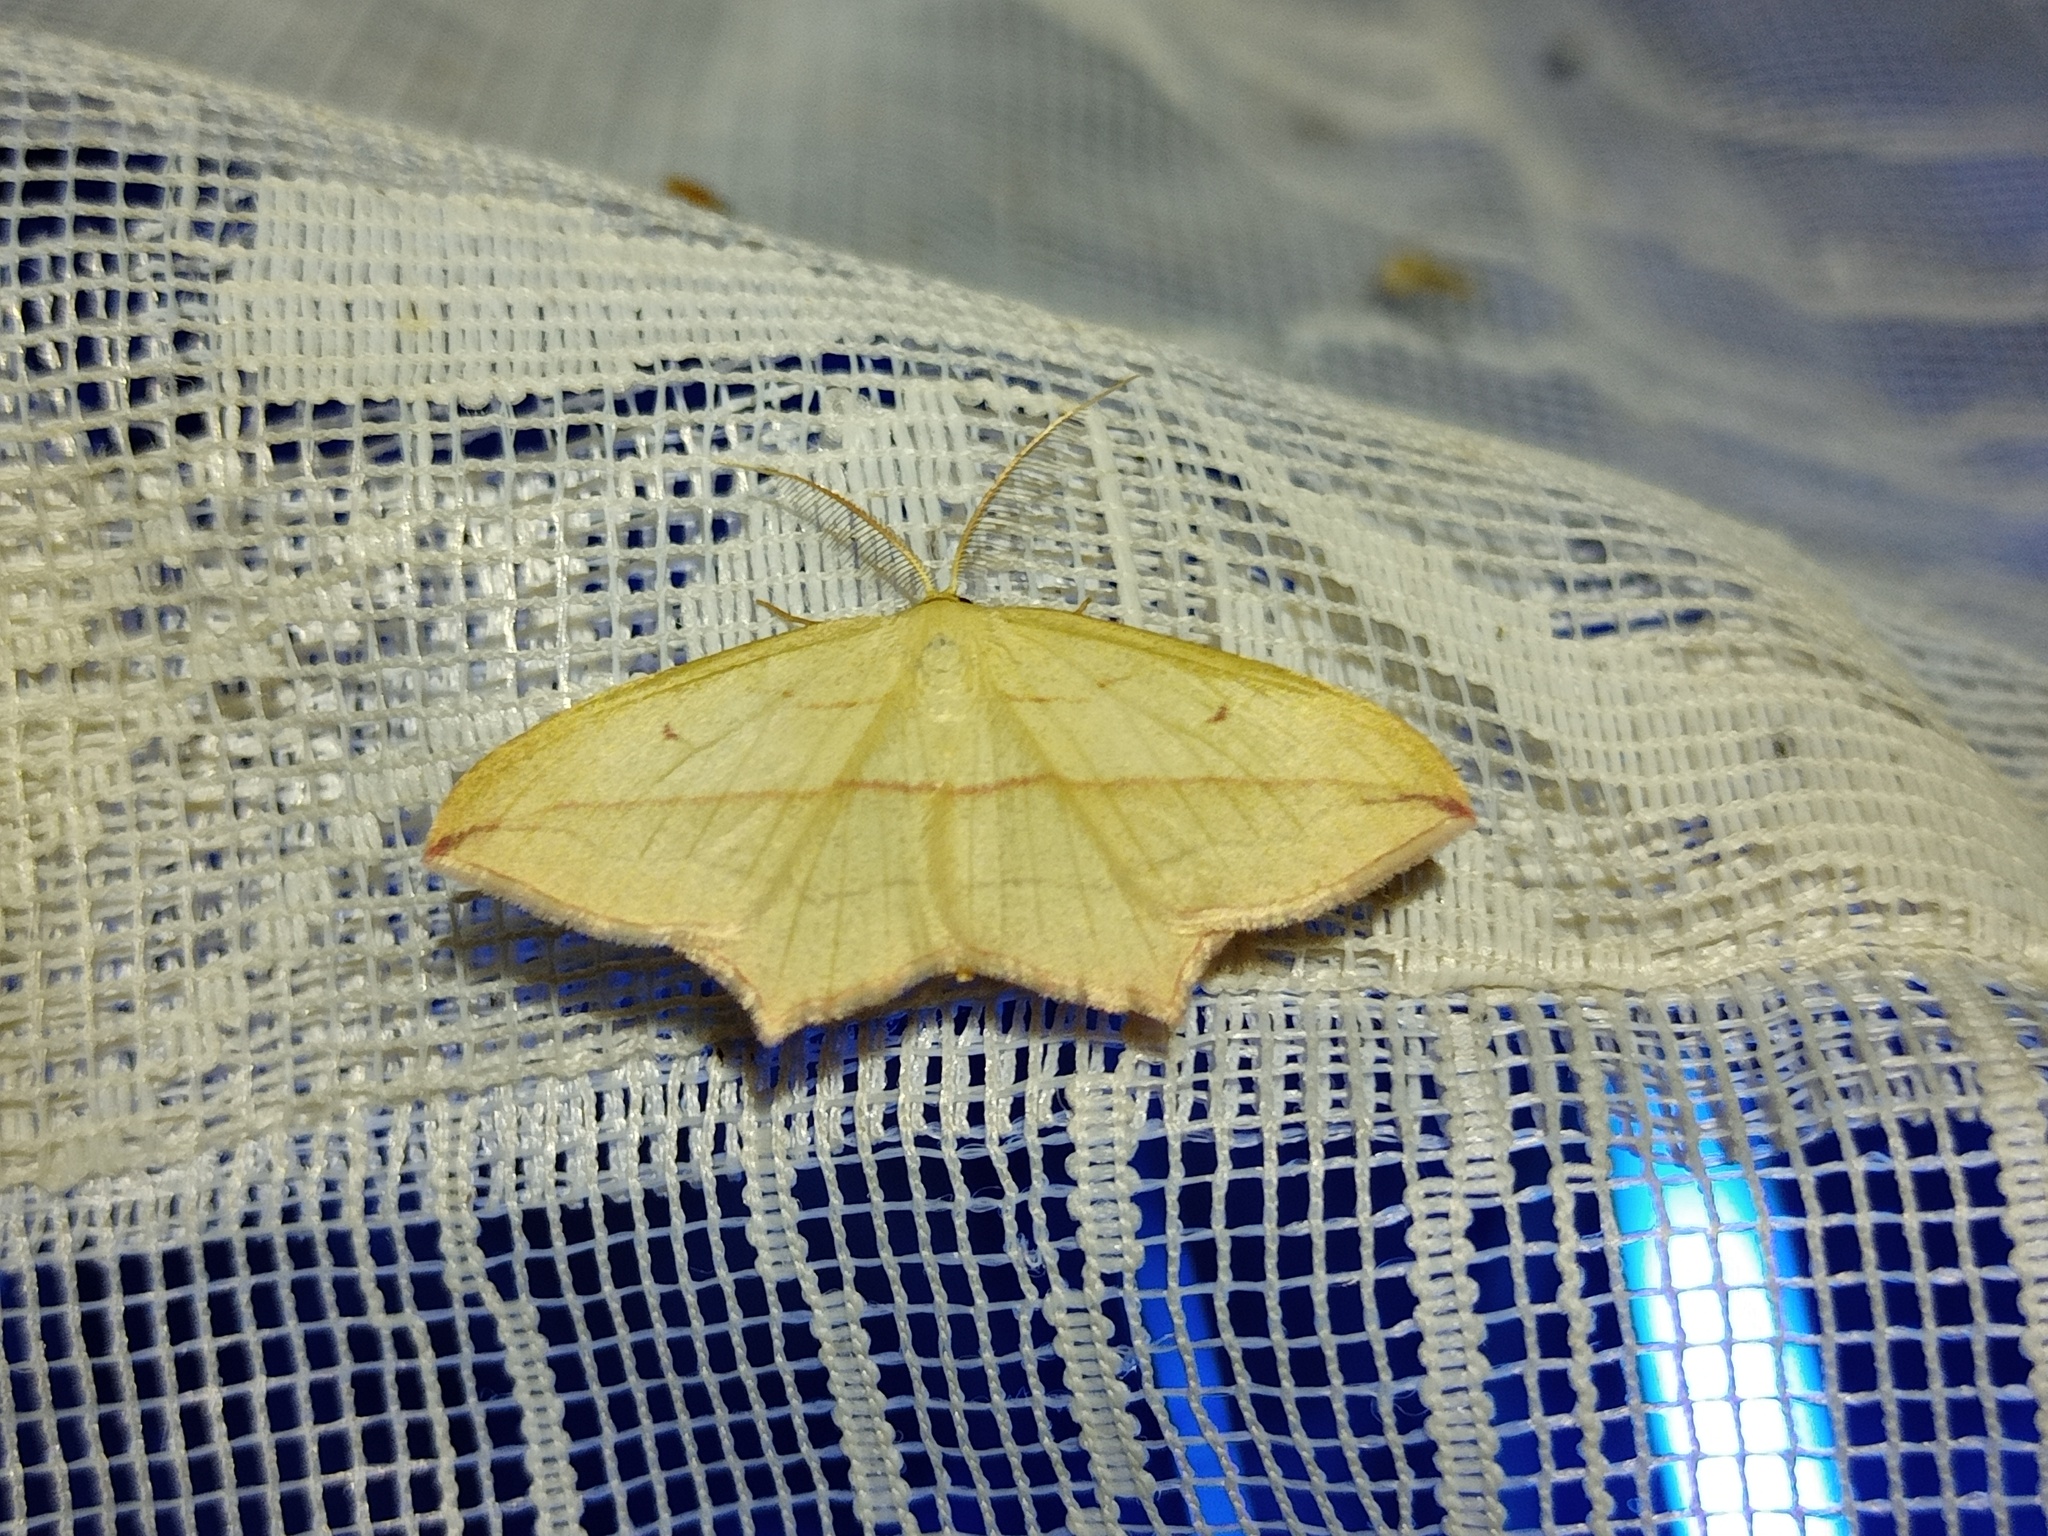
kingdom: Animalia
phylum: Arthropoda
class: Insecta
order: Lepidoptera
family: Geometridae
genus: Timandra
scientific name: Timandra comae
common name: Blood-vein
